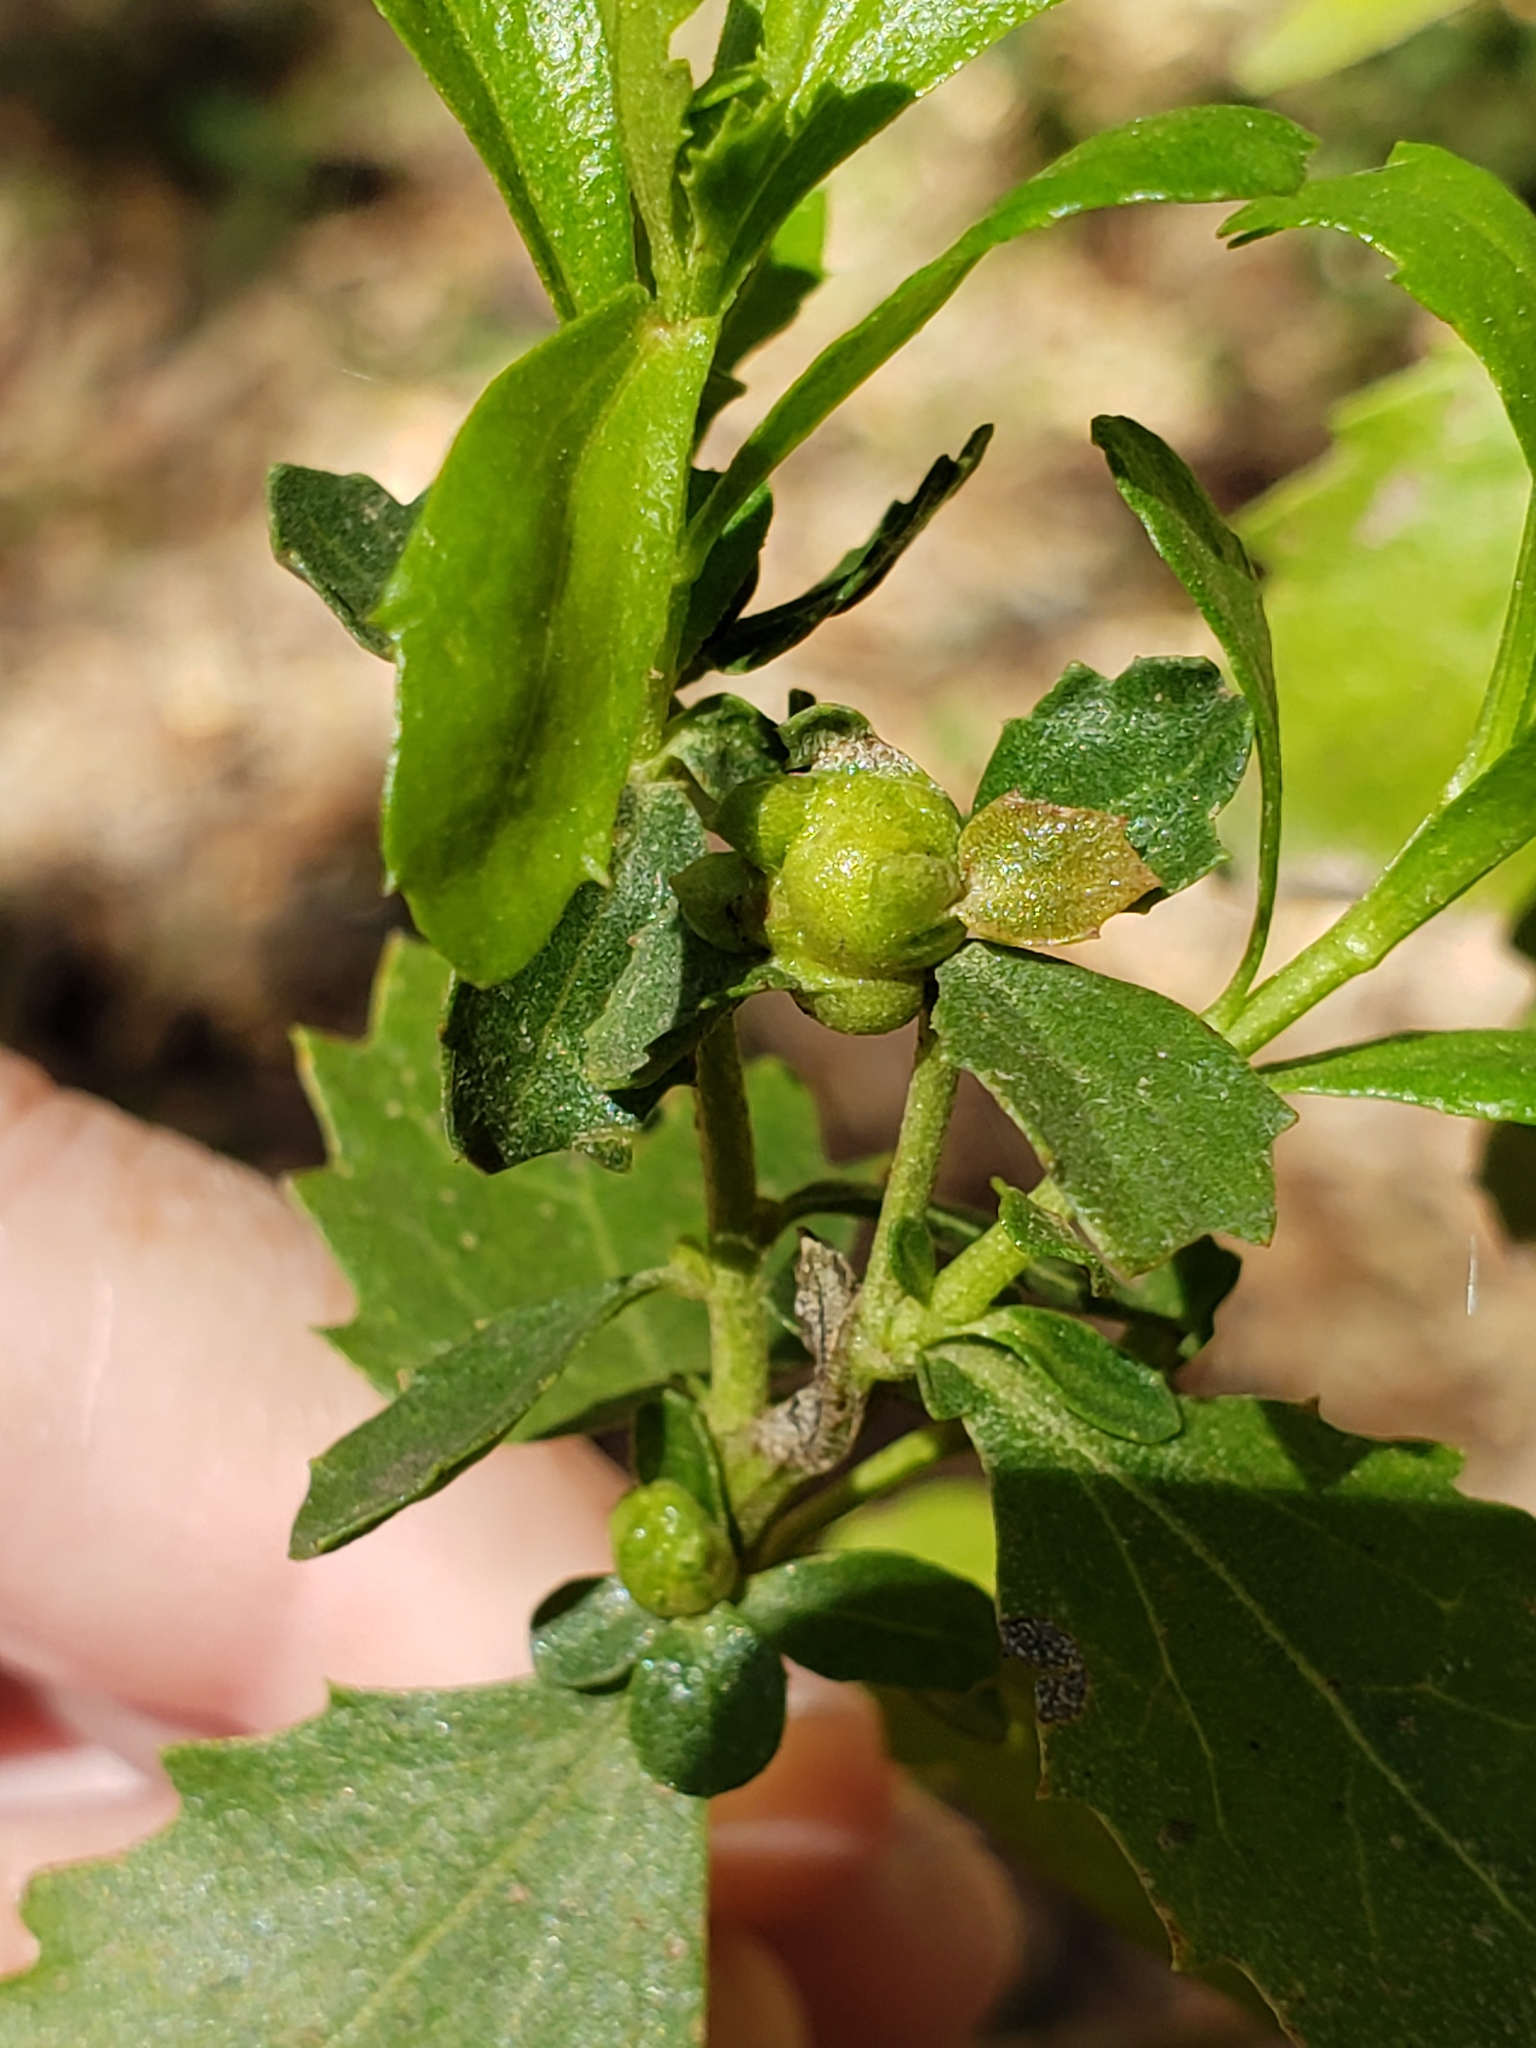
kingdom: Animalia
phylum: Arthropoda
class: Insecta
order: Diptera
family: Cecidomyiidae
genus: Rhopalomyia
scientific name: Rhopalomyia californica
